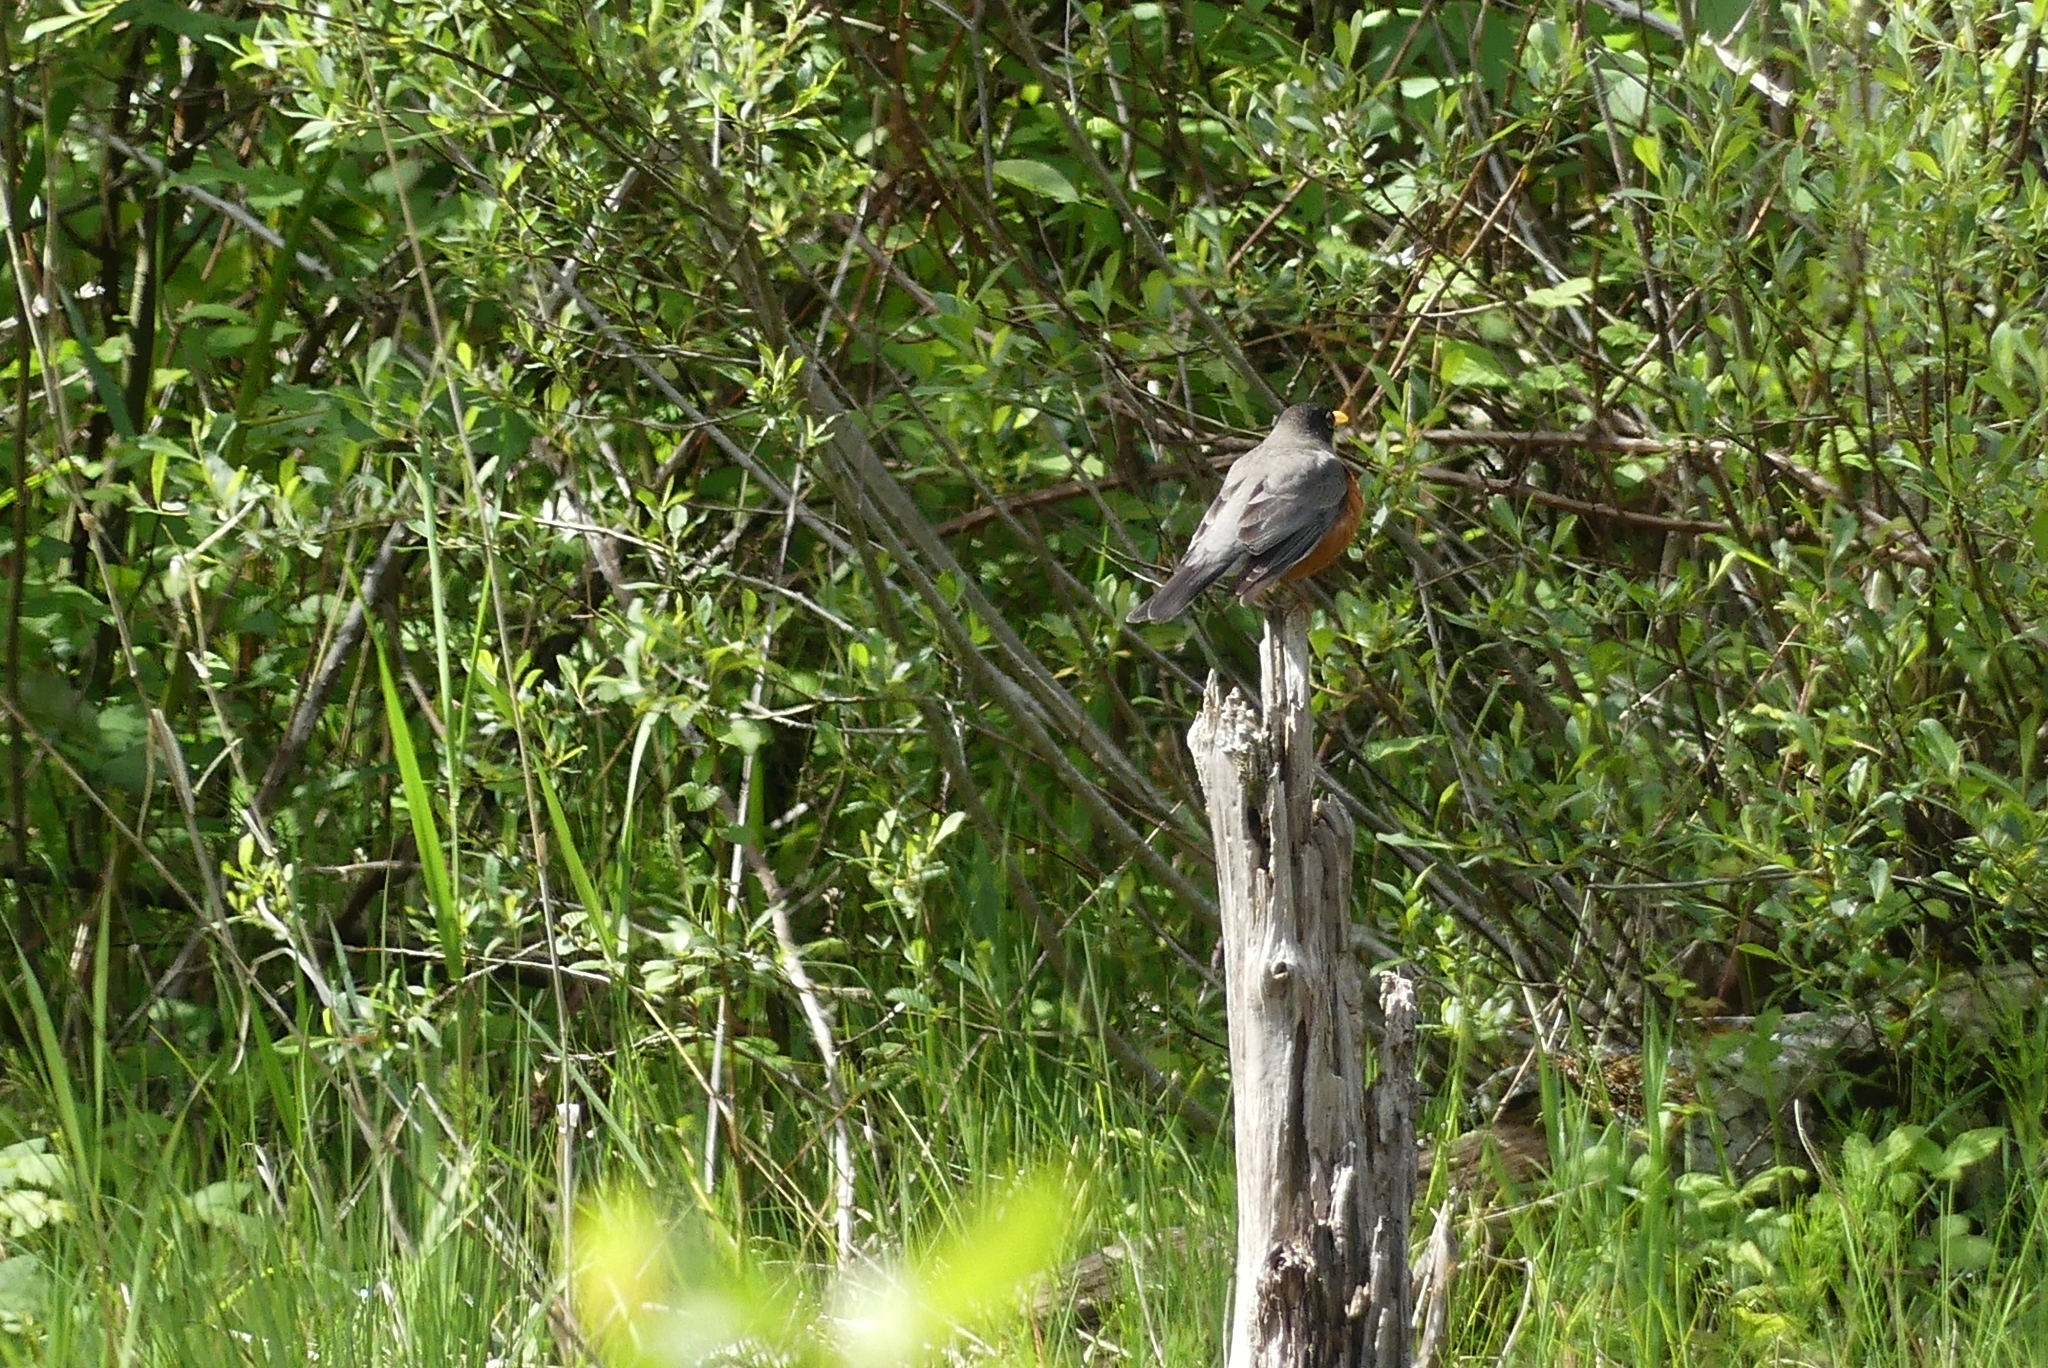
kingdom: Animalia
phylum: Chordata
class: Aves
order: Passeriformes
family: Turdidae
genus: Turdus
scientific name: Turdus migratorius
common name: American robin
